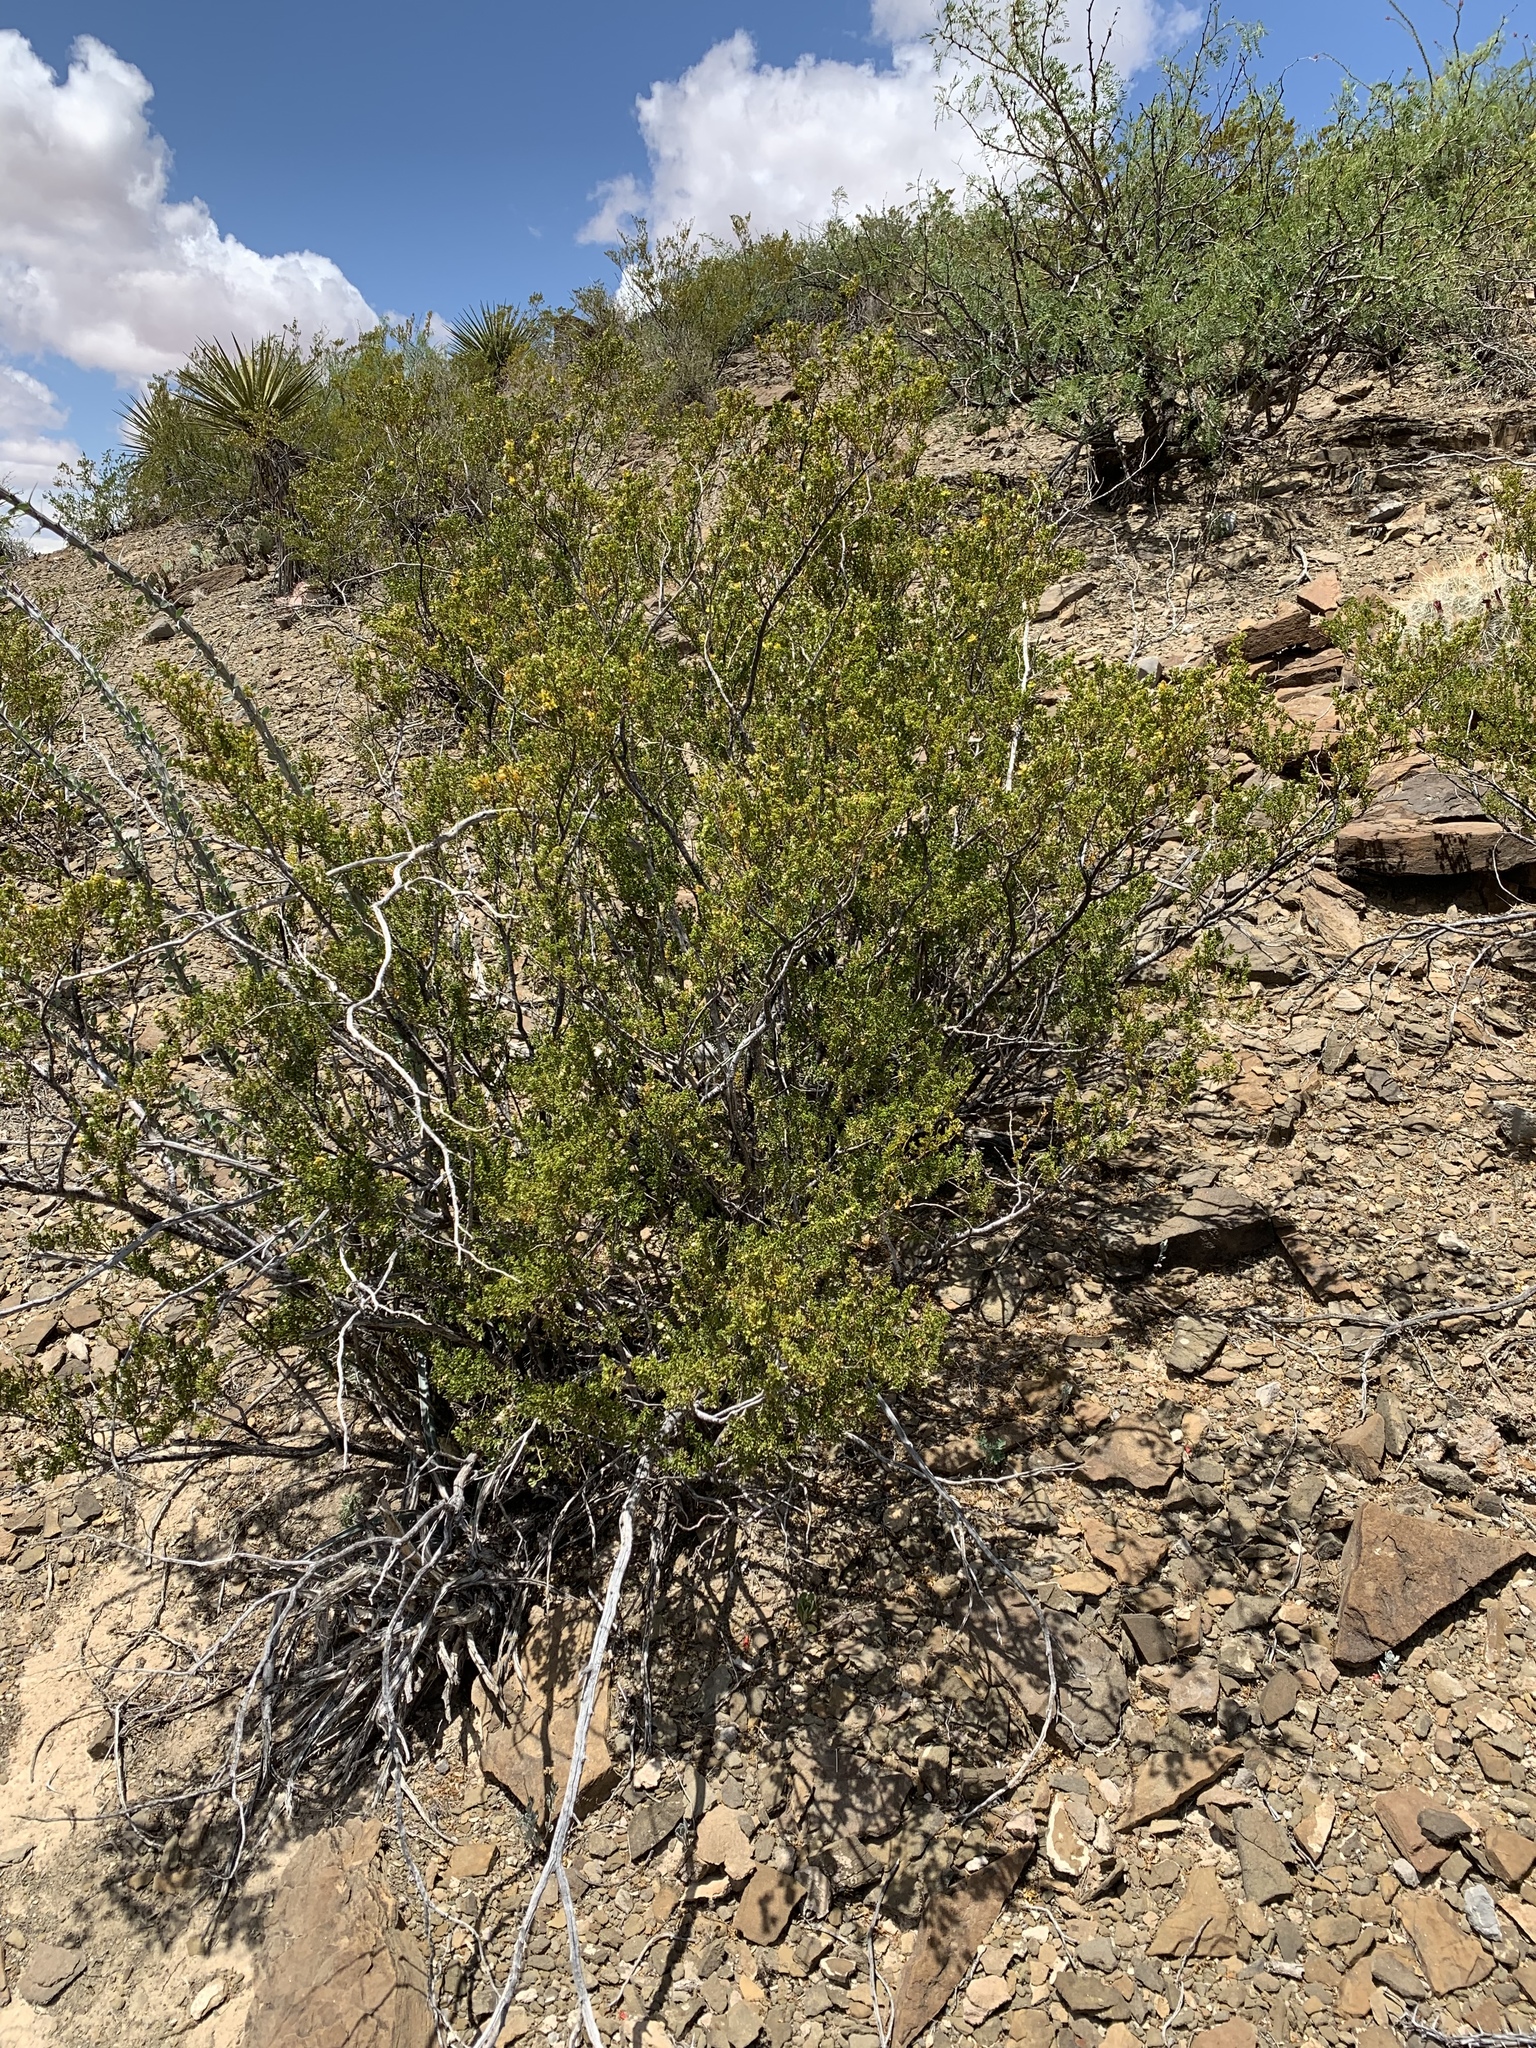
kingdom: Plantae
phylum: Tracheophyta
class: Magnoliopsida
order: Zygophyllales
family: Zygophyllaceae
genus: Larrea
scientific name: Larrea tridentata
